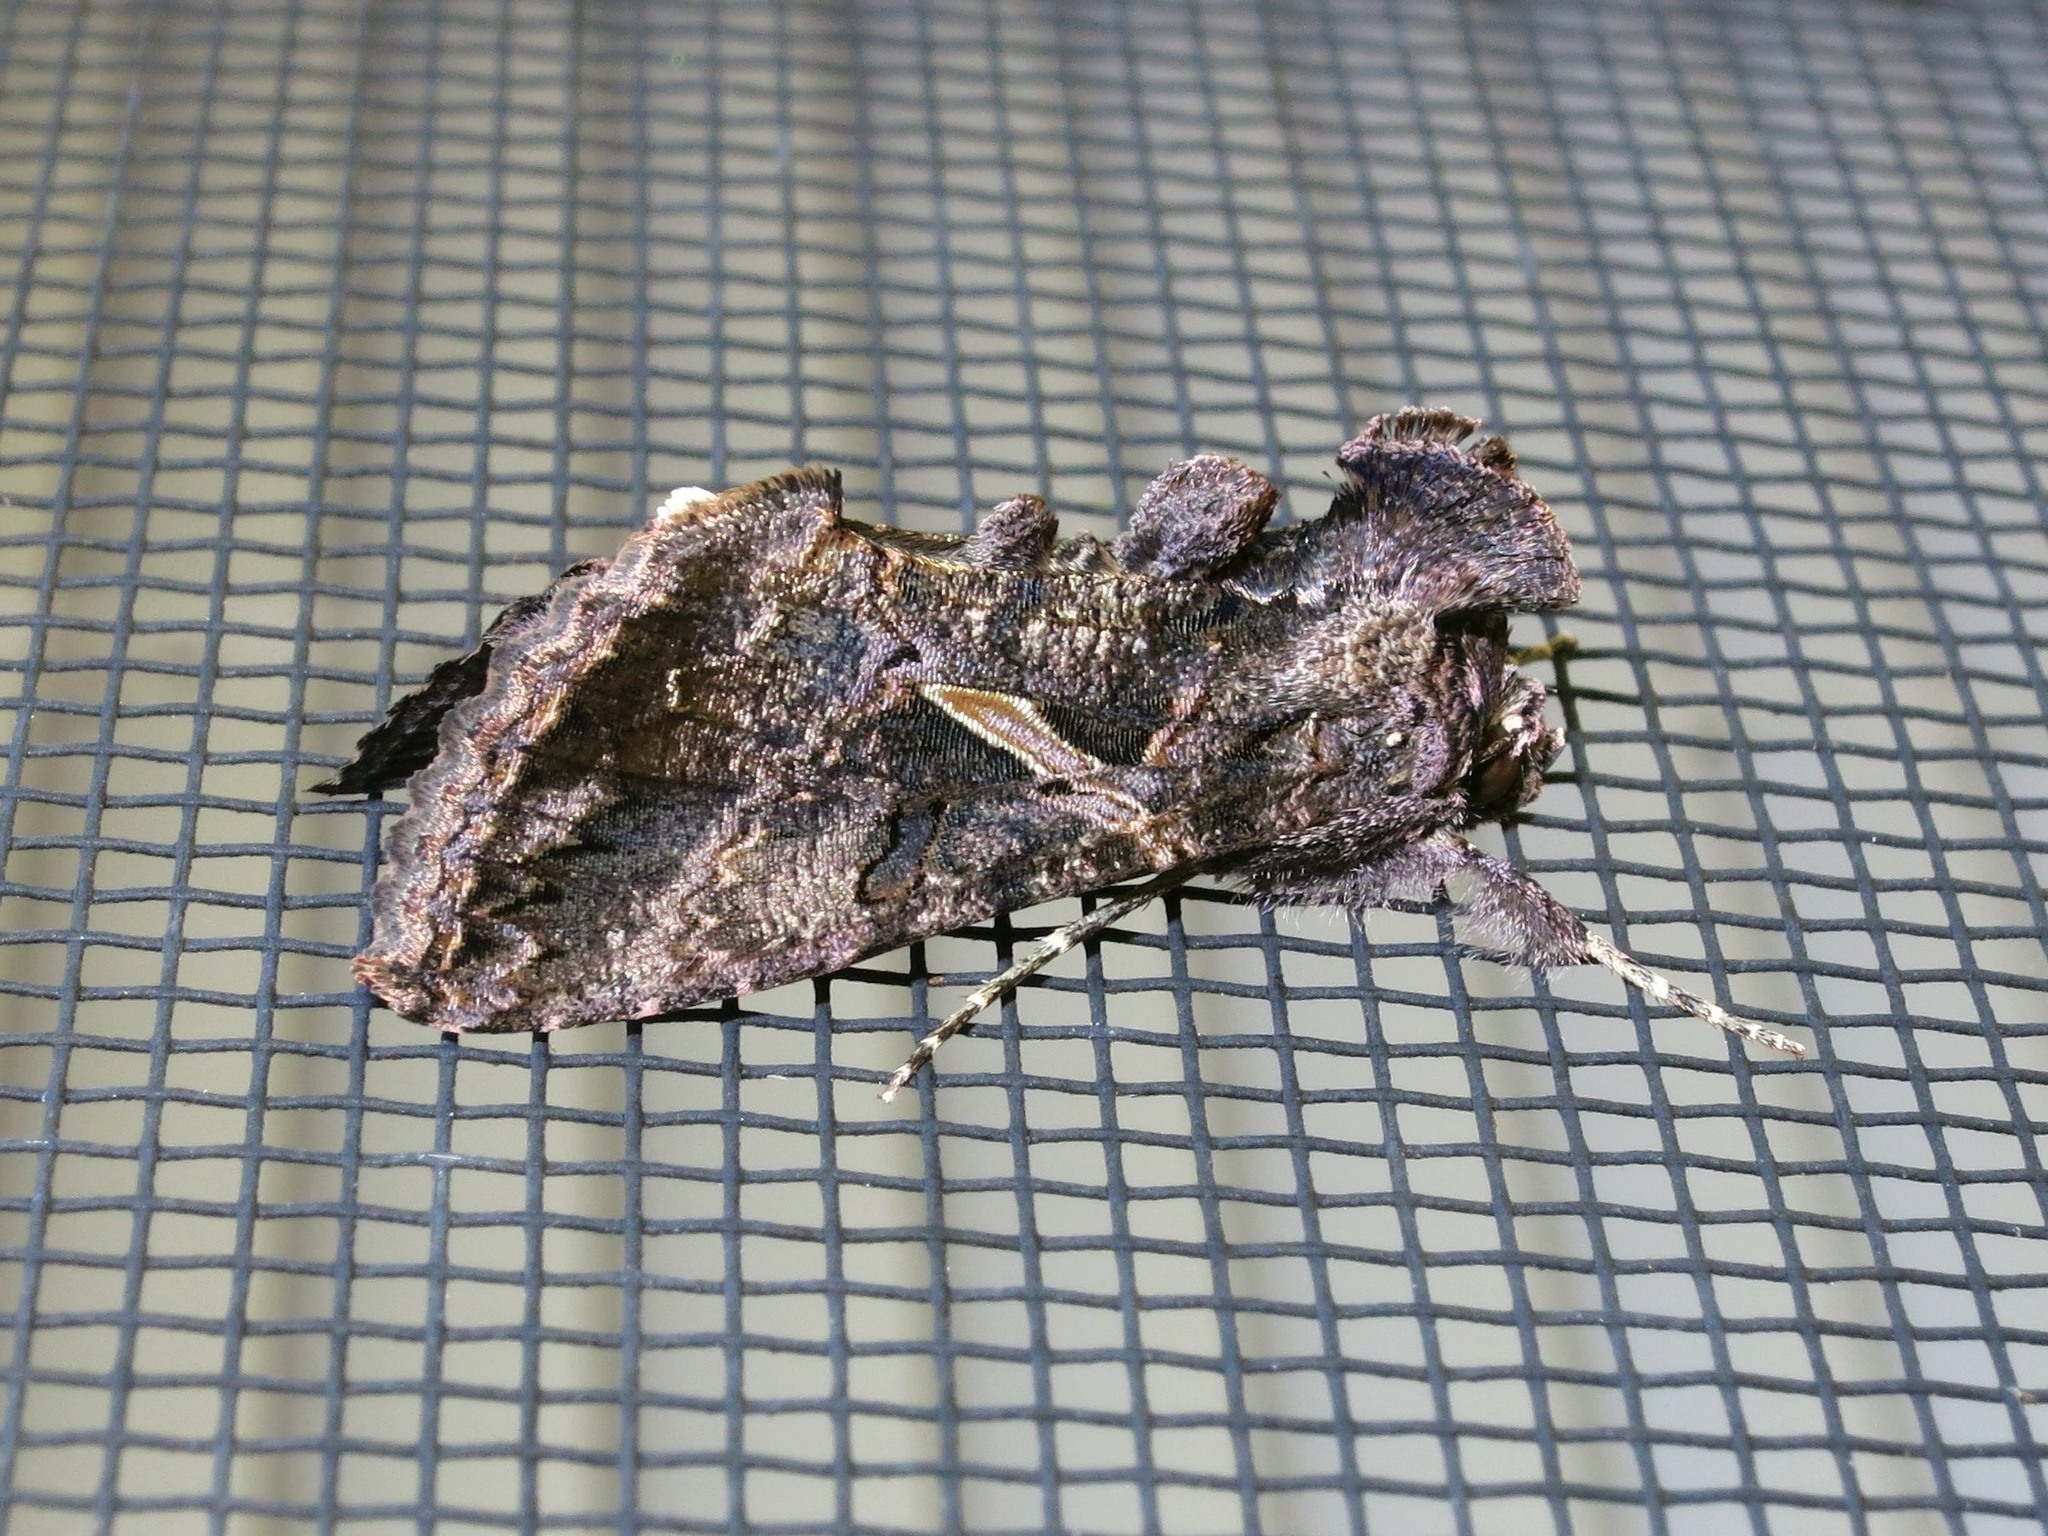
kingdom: Animalia
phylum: Arthropoda
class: Insecta
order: Lepidoptera
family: Noctuidae
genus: Ctenoplusia
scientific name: Ctenoplusia oxygramma
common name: Sharp-stigma looper moth
